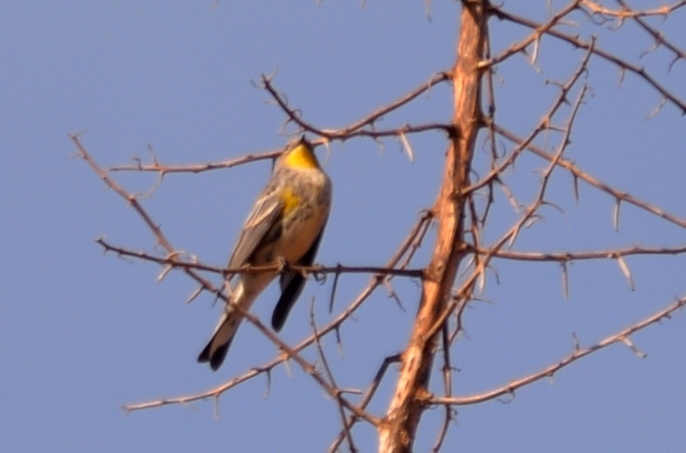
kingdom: Animalia
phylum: Chordata
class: Aves
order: Passeriformes
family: Parulidae
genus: Setophaga
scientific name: Setophaga auduboni
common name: Audubon's warbler
